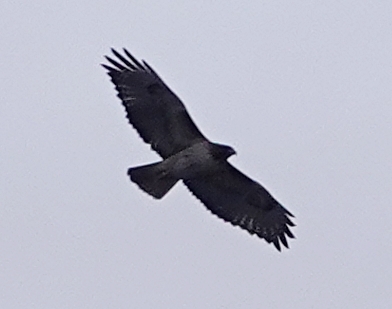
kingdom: Animalia
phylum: Chordata
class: Aves
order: Accipitriformes
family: Accipitridae
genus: Buteo
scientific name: Buteo jamaicensis
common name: Red-tailed hawk
